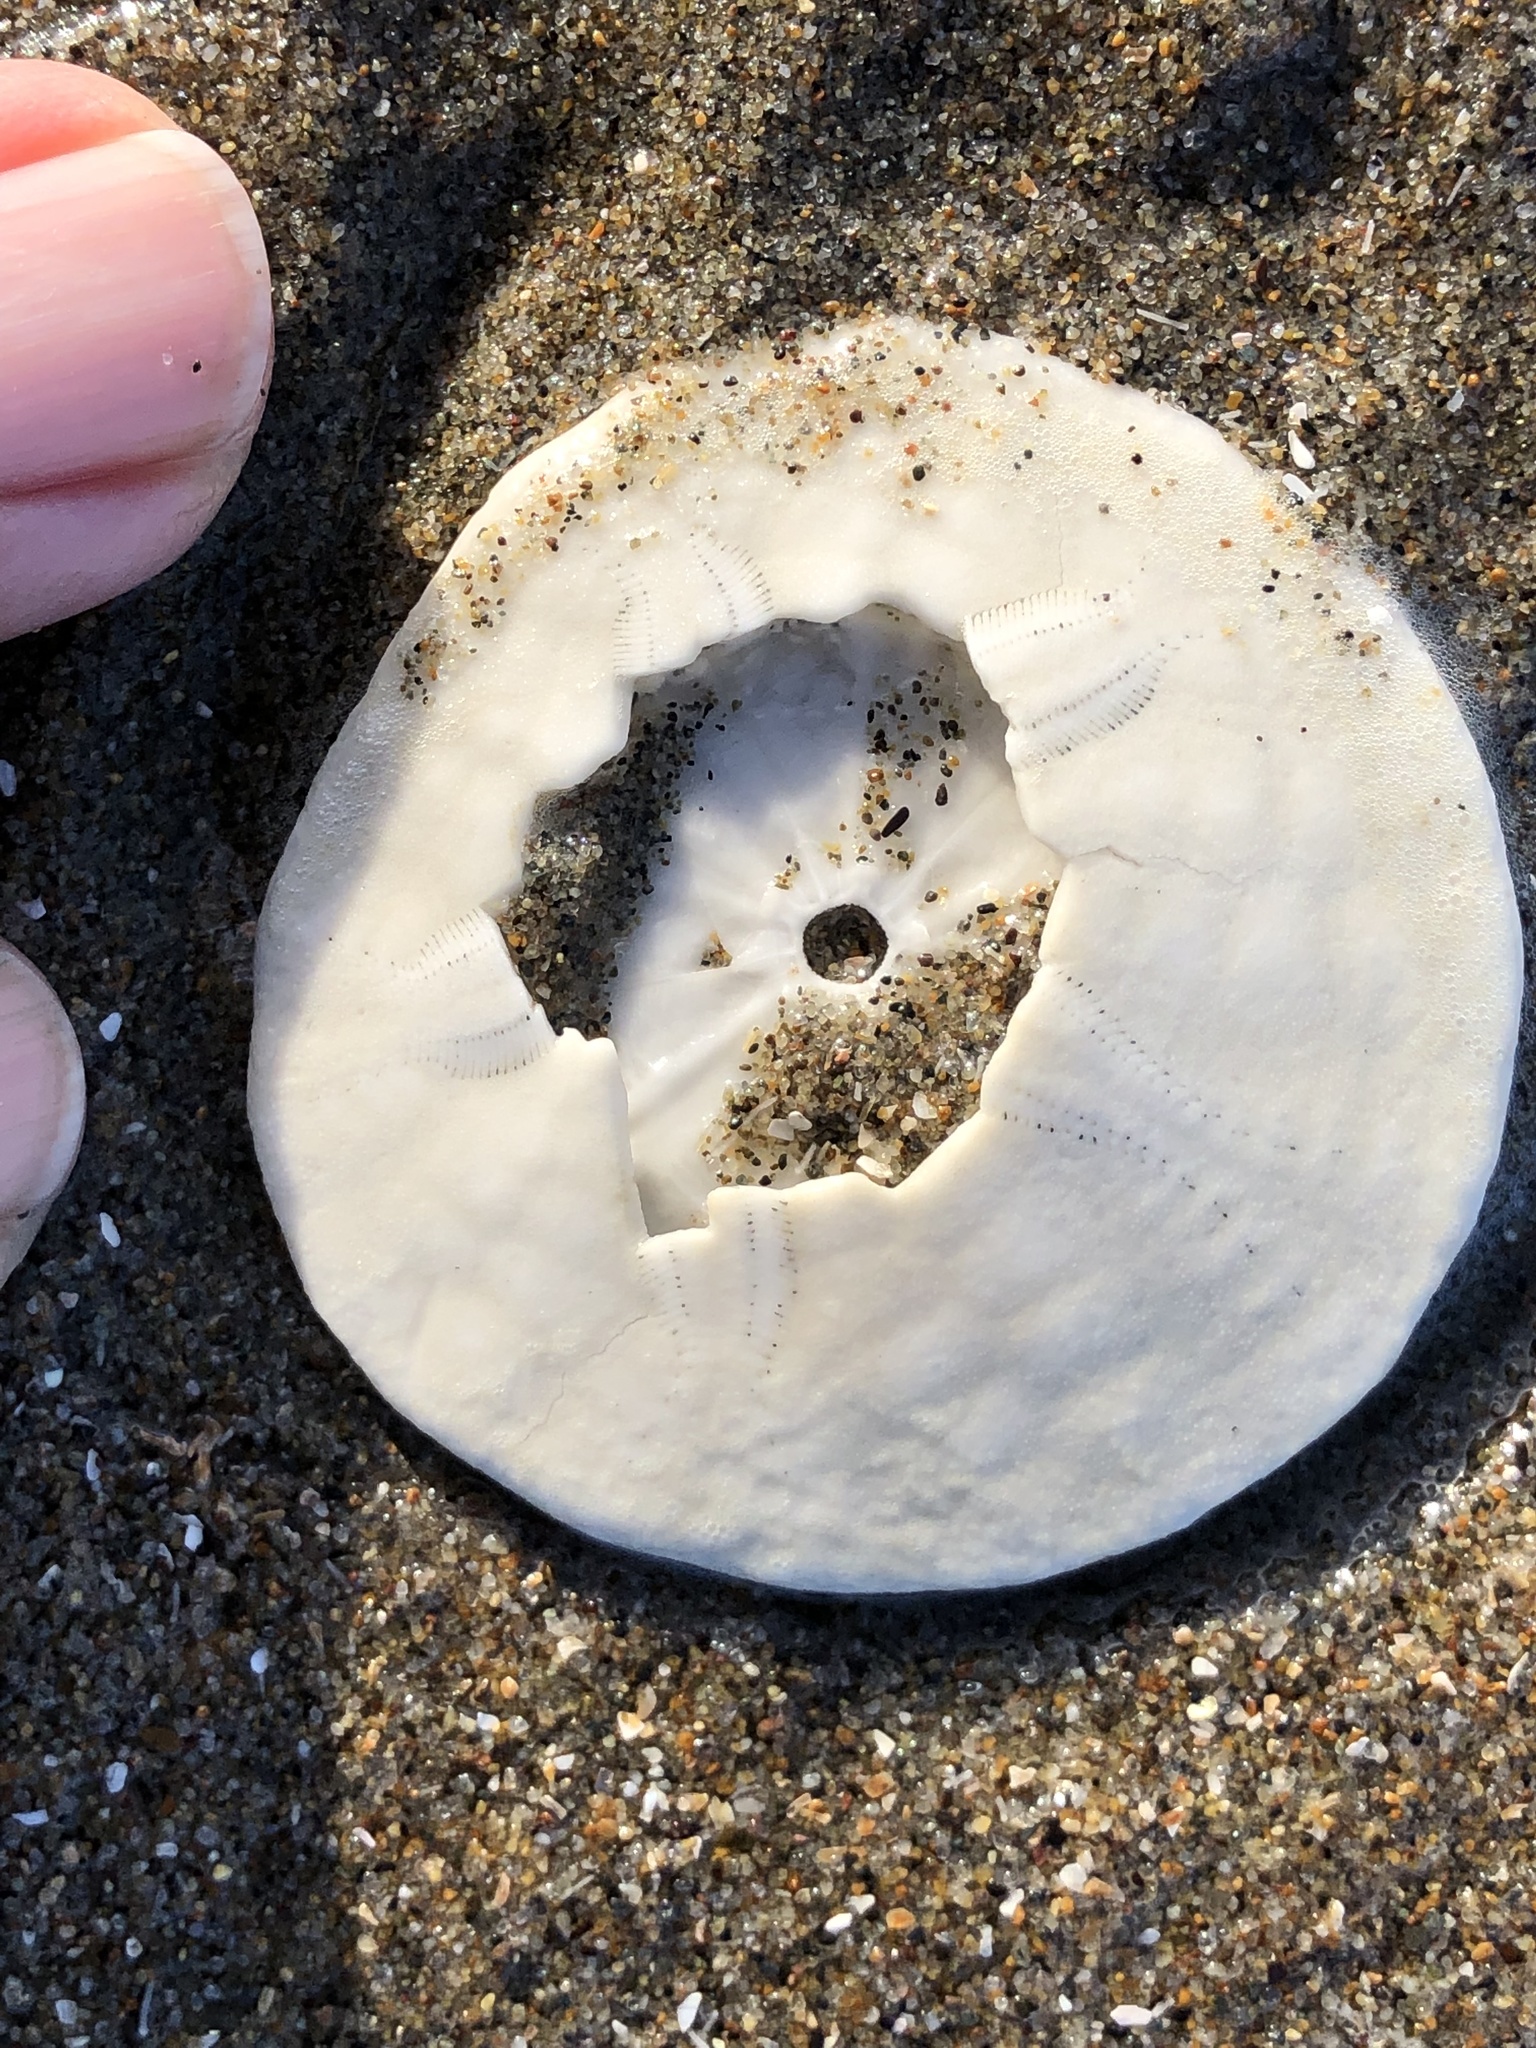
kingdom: Animalia
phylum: Echinodermata
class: Echinoidea
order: Echinolampadacea
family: Dendrasteridae
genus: Dendraster
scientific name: Dendraster excentricus
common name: Eccentric sand dollar sea urchin
